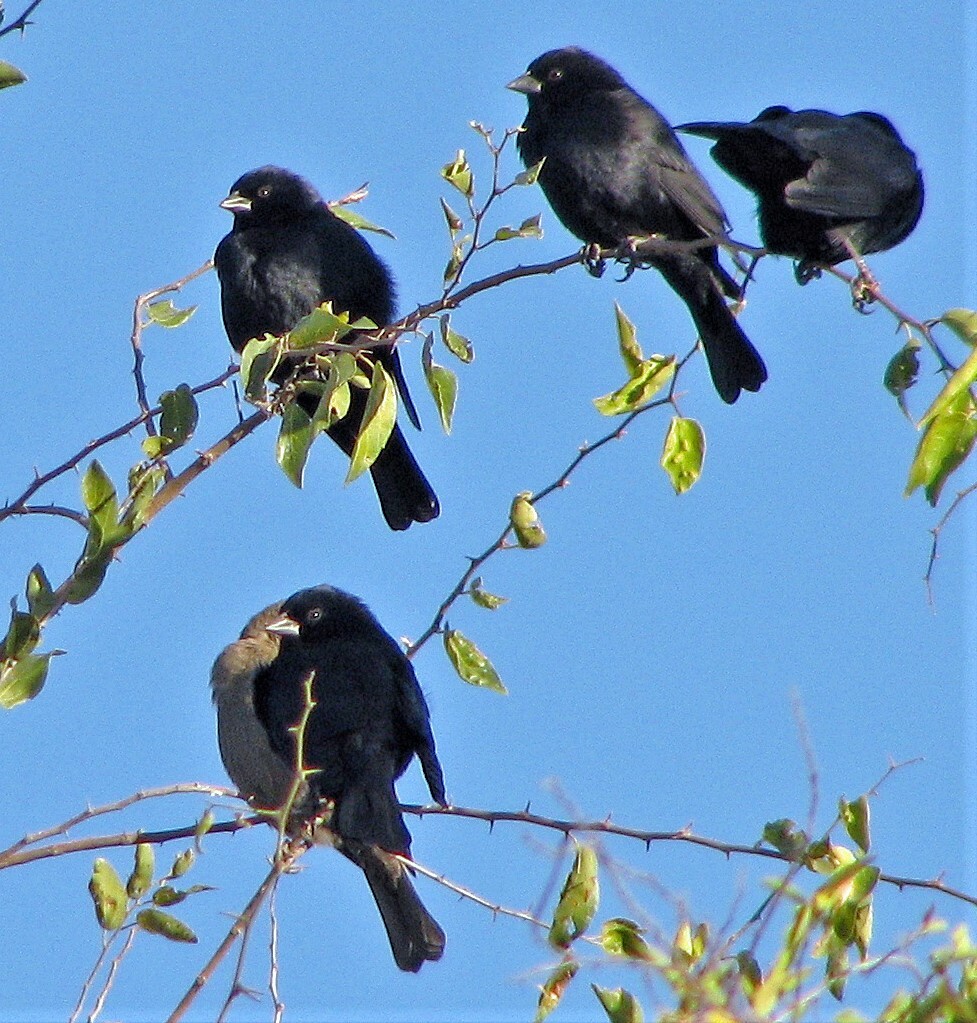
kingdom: Animalia
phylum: Chordata
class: Aves
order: Passeriformes
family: Icteridae
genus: Molothrus
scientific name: Molothrus rufoaxillaris
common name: Screaming cowbird
